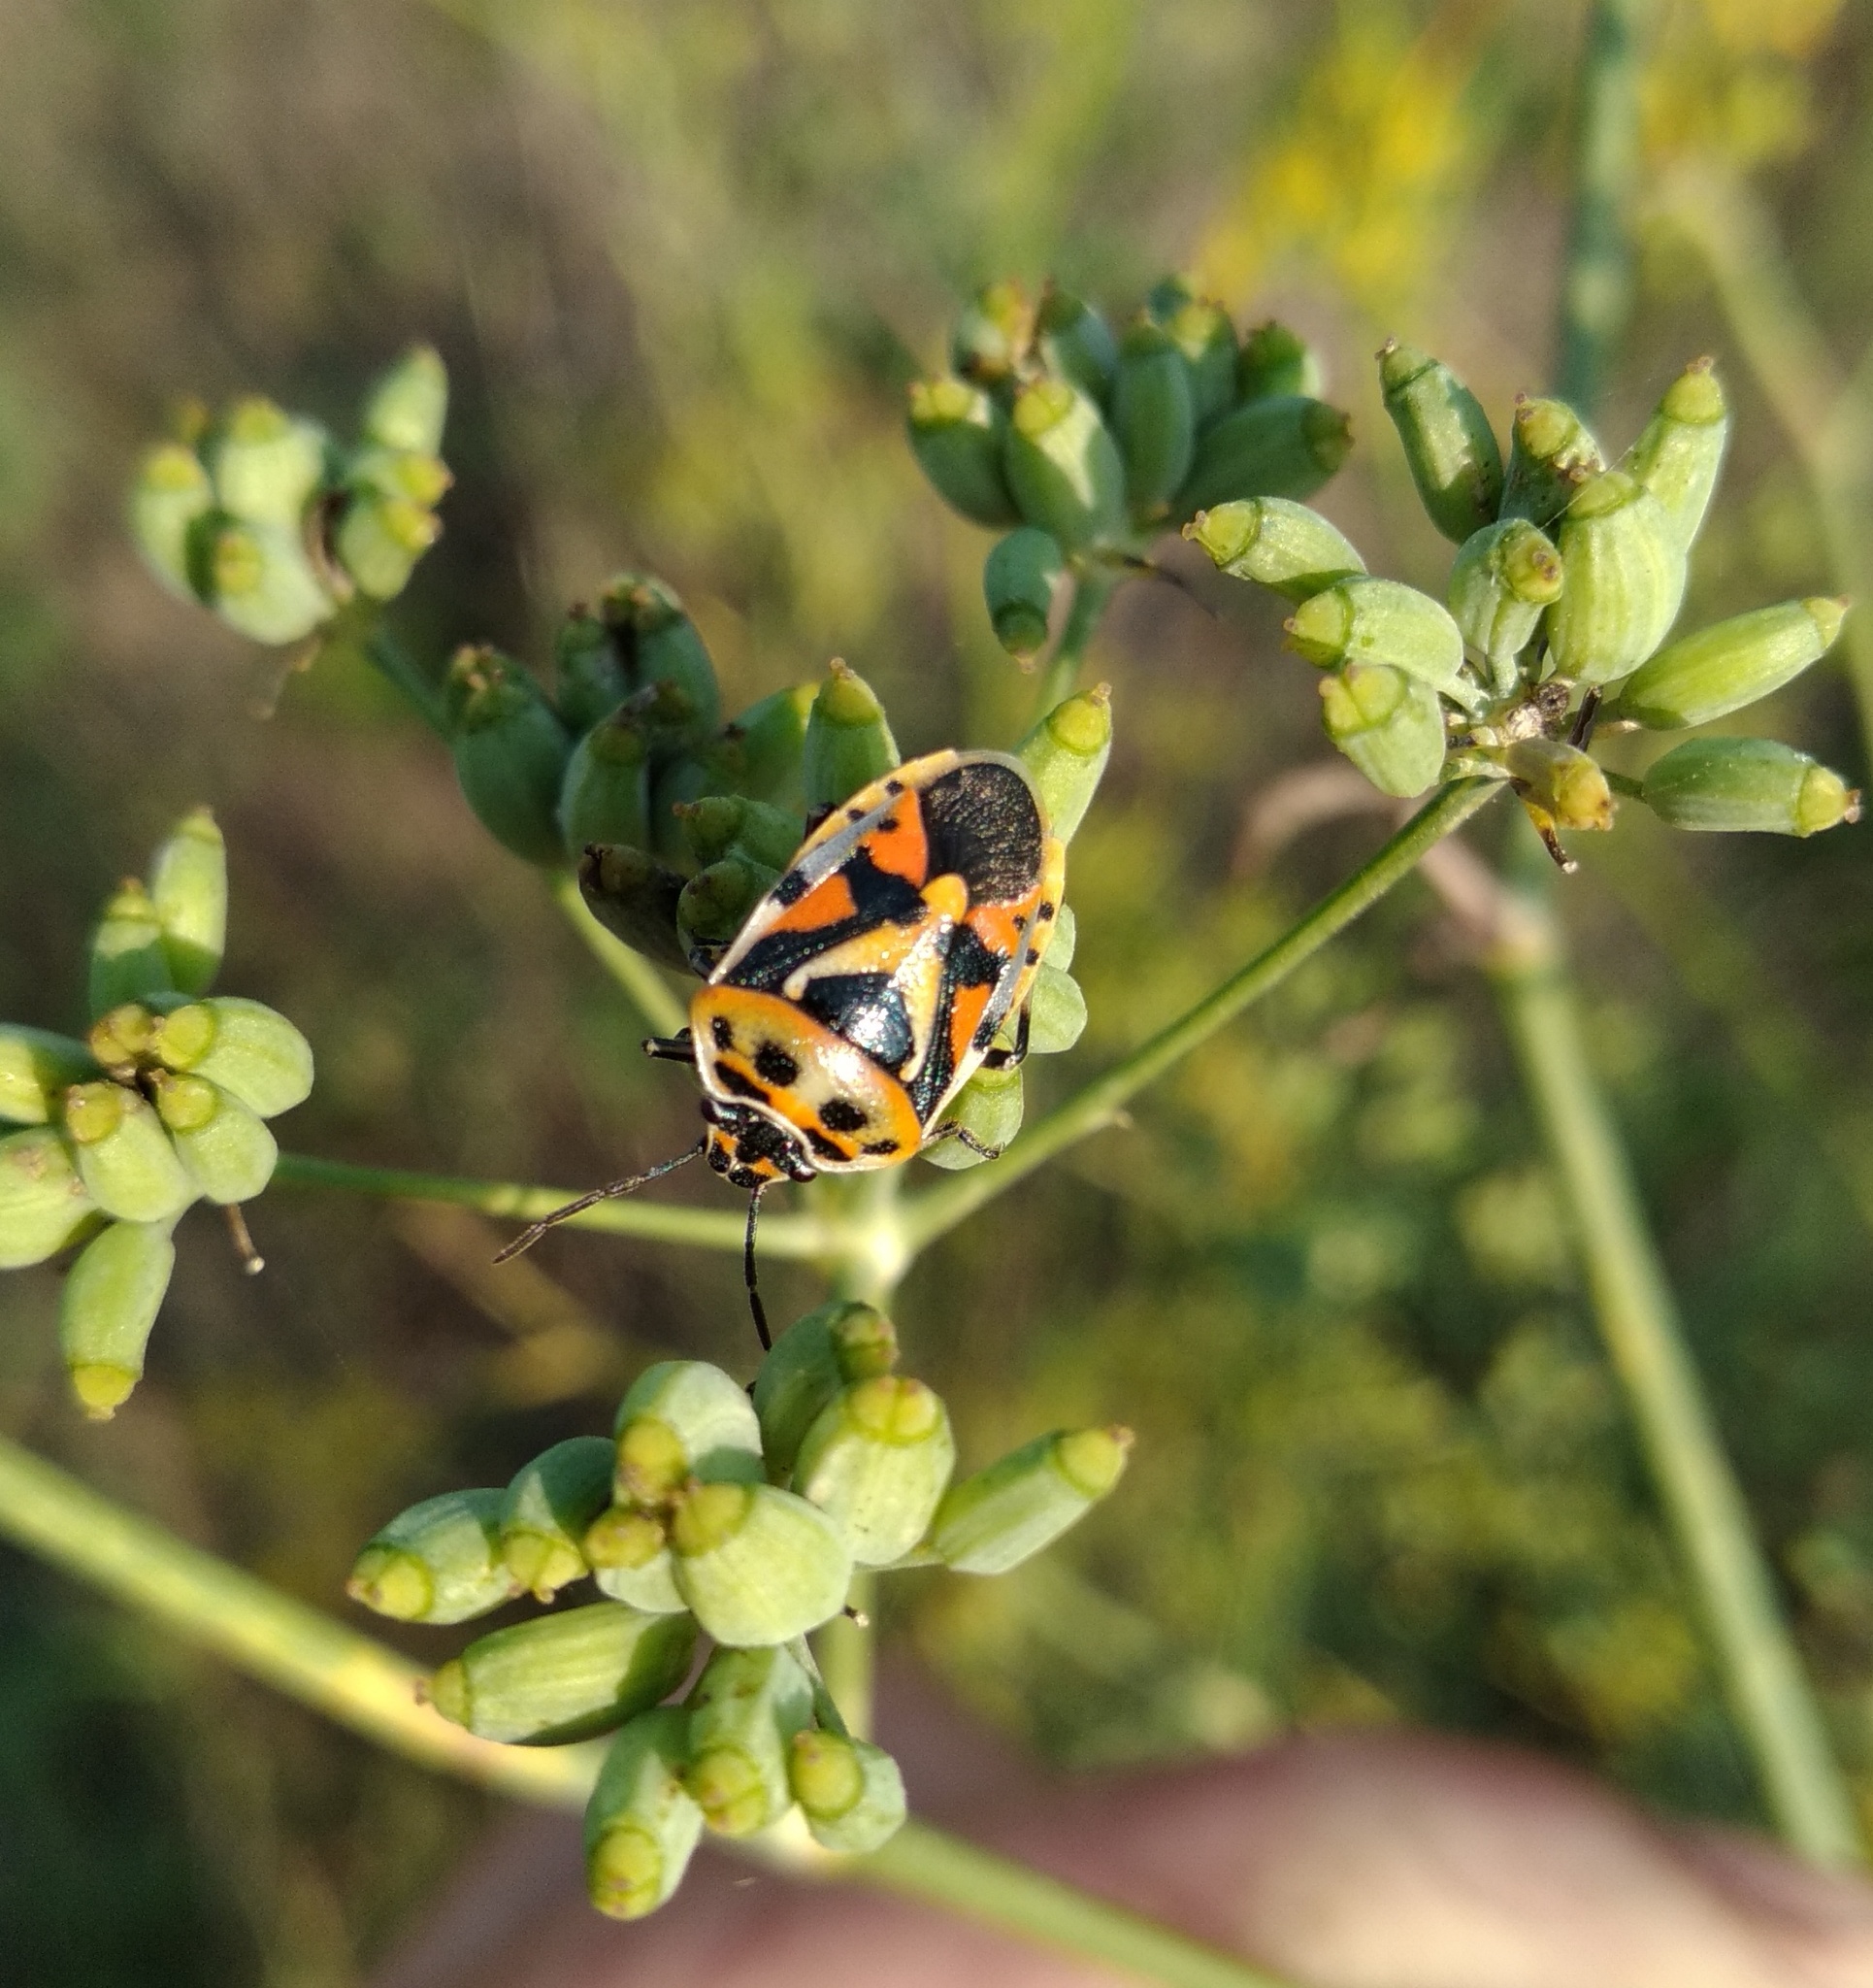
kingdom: Animalia
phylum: Arthropoda
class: Insecta
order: Hemiptera
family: Pentatomidae
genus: Eurydema
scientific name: Eurydema ornata
